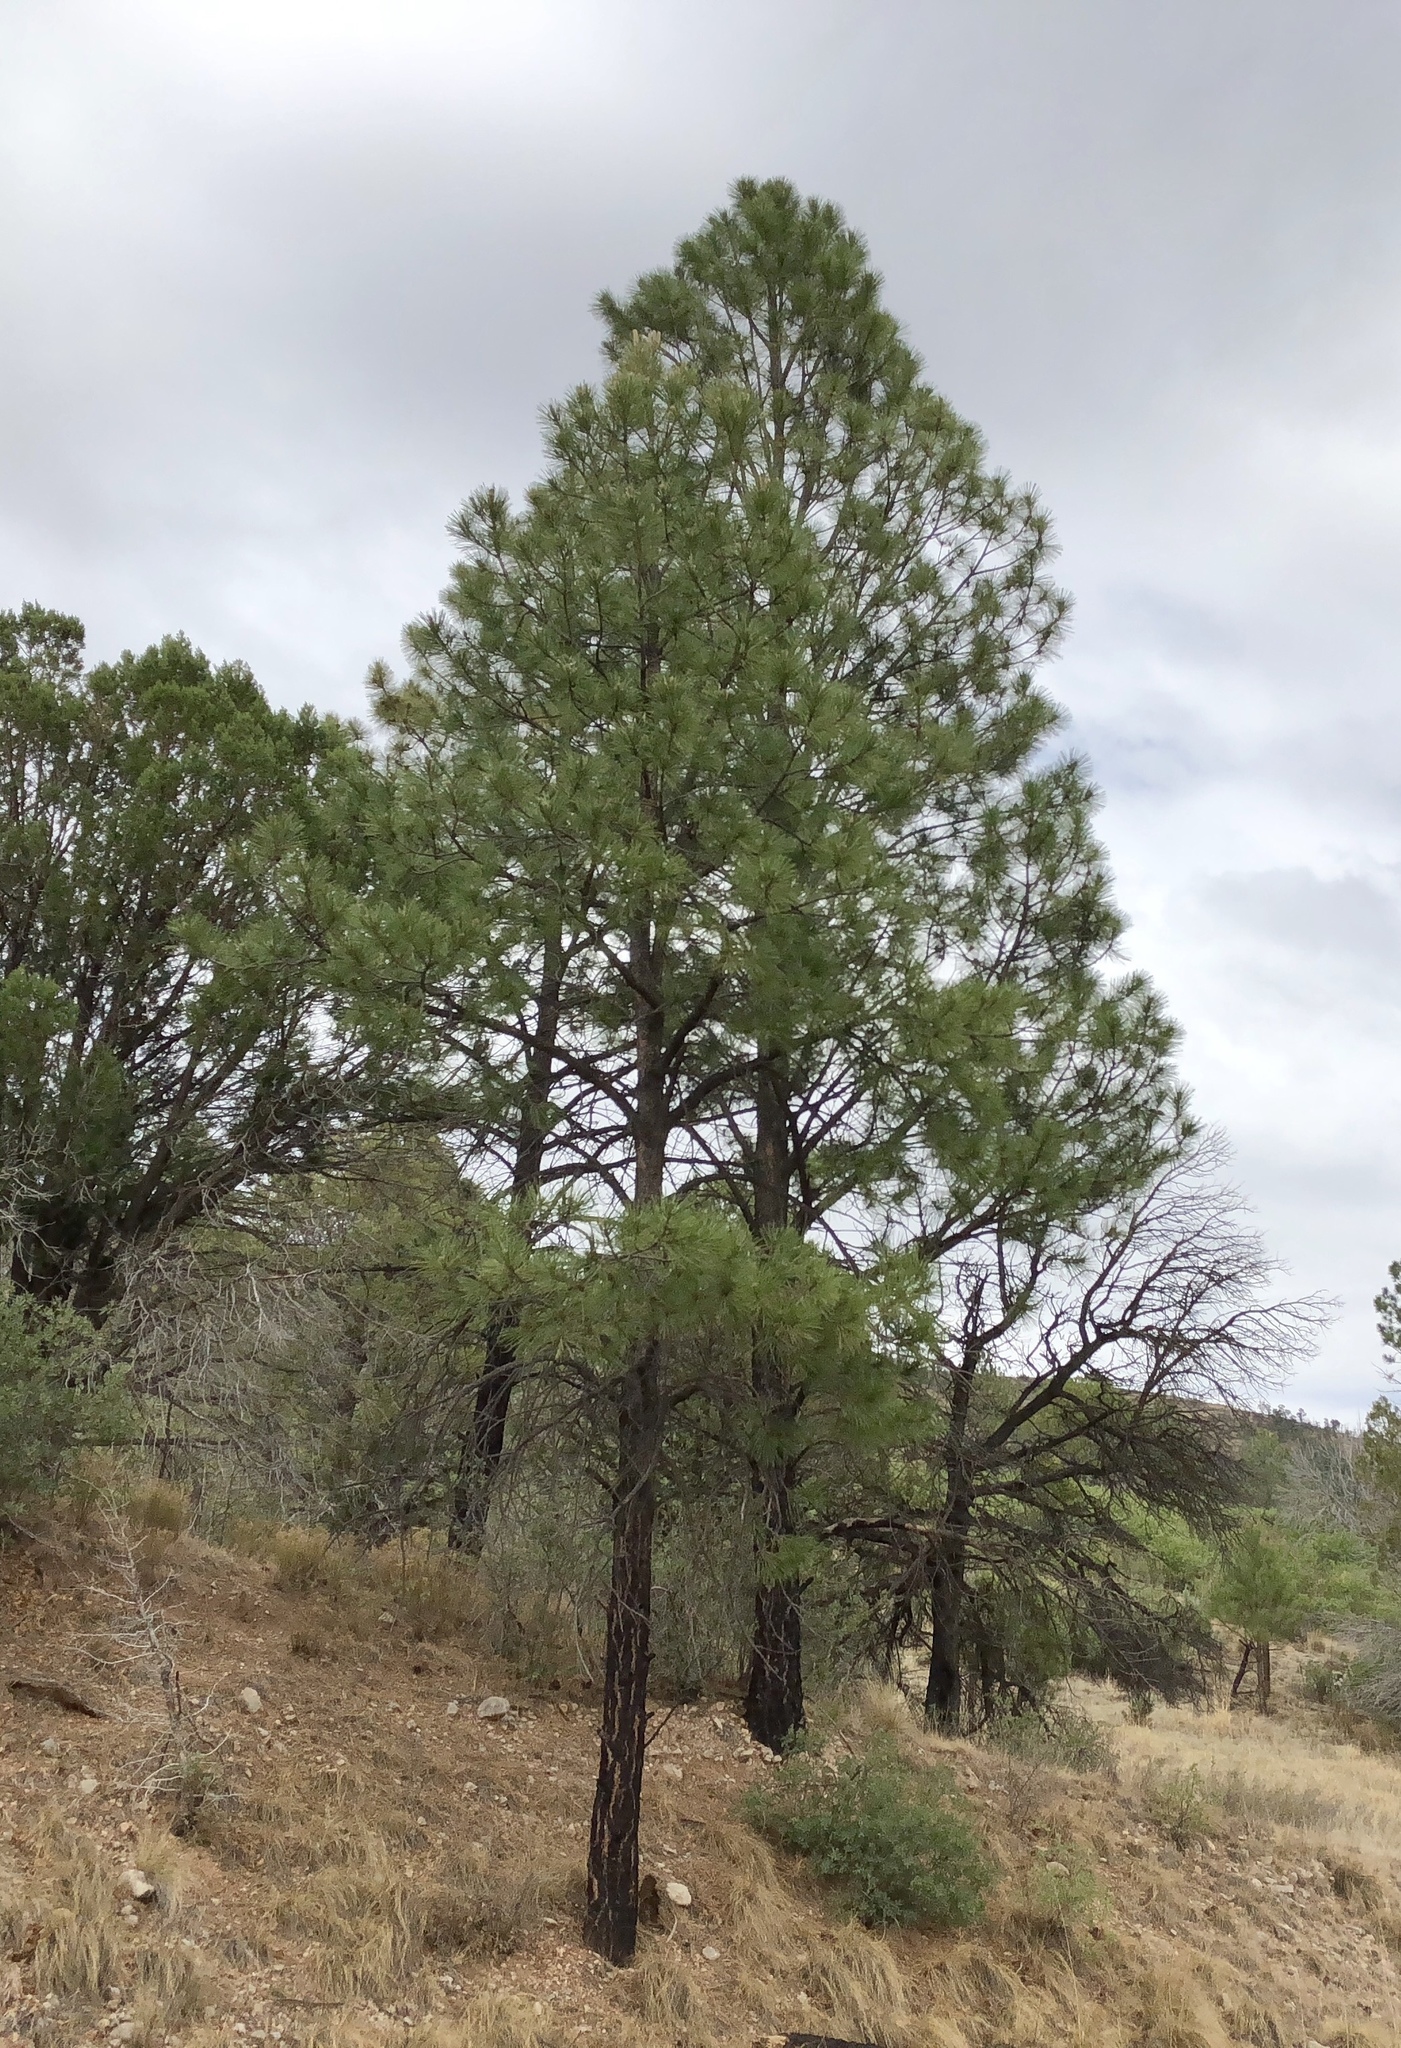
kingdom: Plantae
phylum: Tracheophyta
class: Pinopsida
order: Pinales
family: Pinaceae
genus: Pinus
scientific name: Pinus ponderosa
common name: Western yellow-pine
